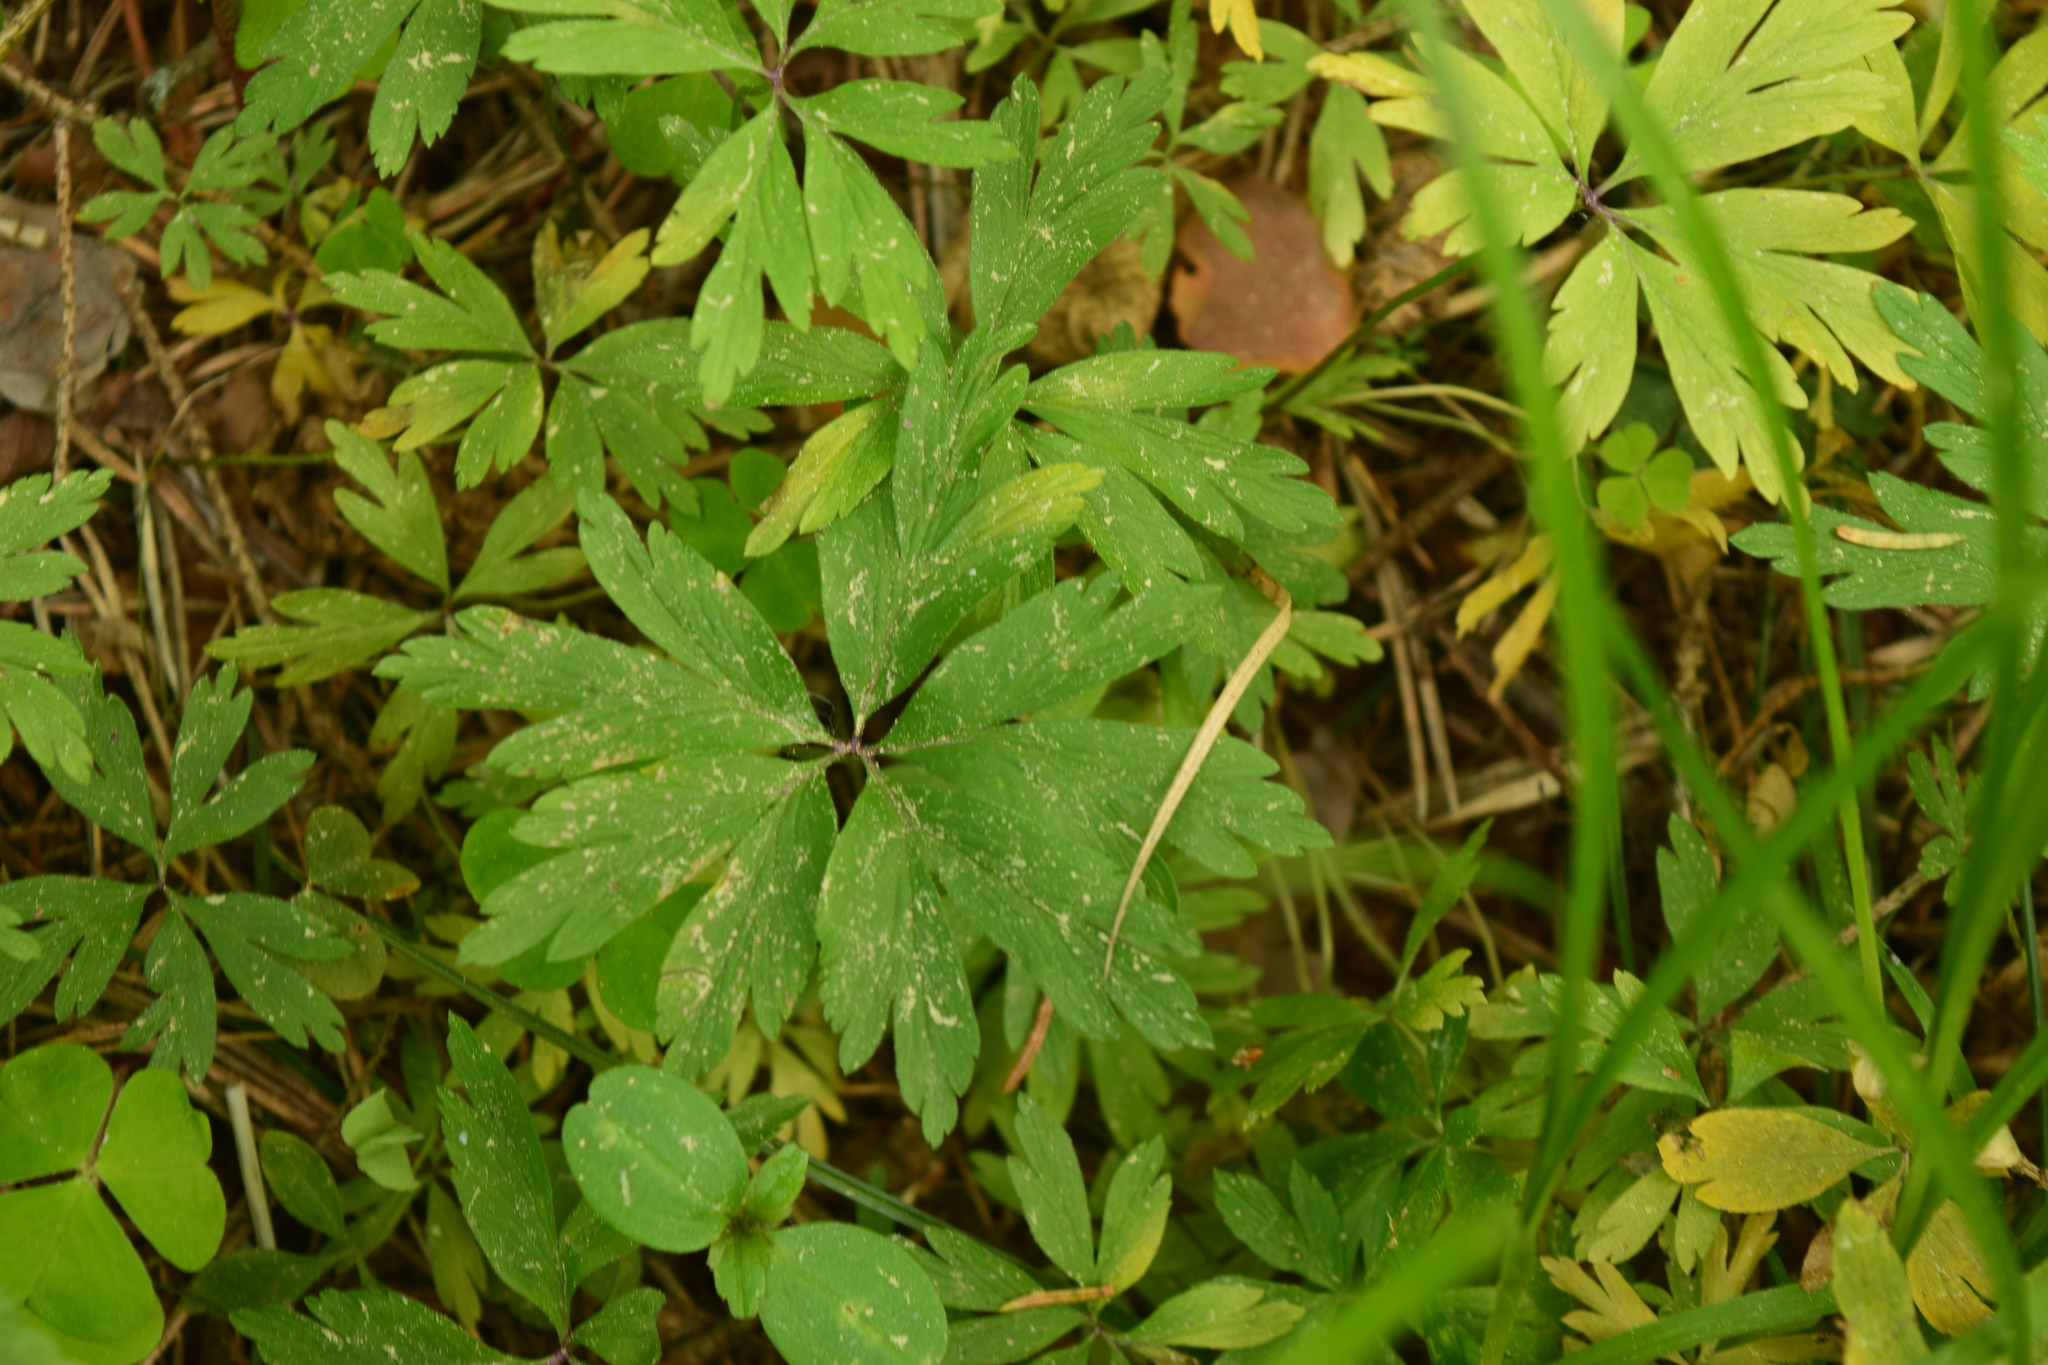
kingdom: Plantae
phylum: Tracheophyta
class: Magnoliopsida
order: Ranunculales
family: Ranunculaceae
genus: Anemone
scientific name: Anemone ranunculoides
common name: Yellow anemone
